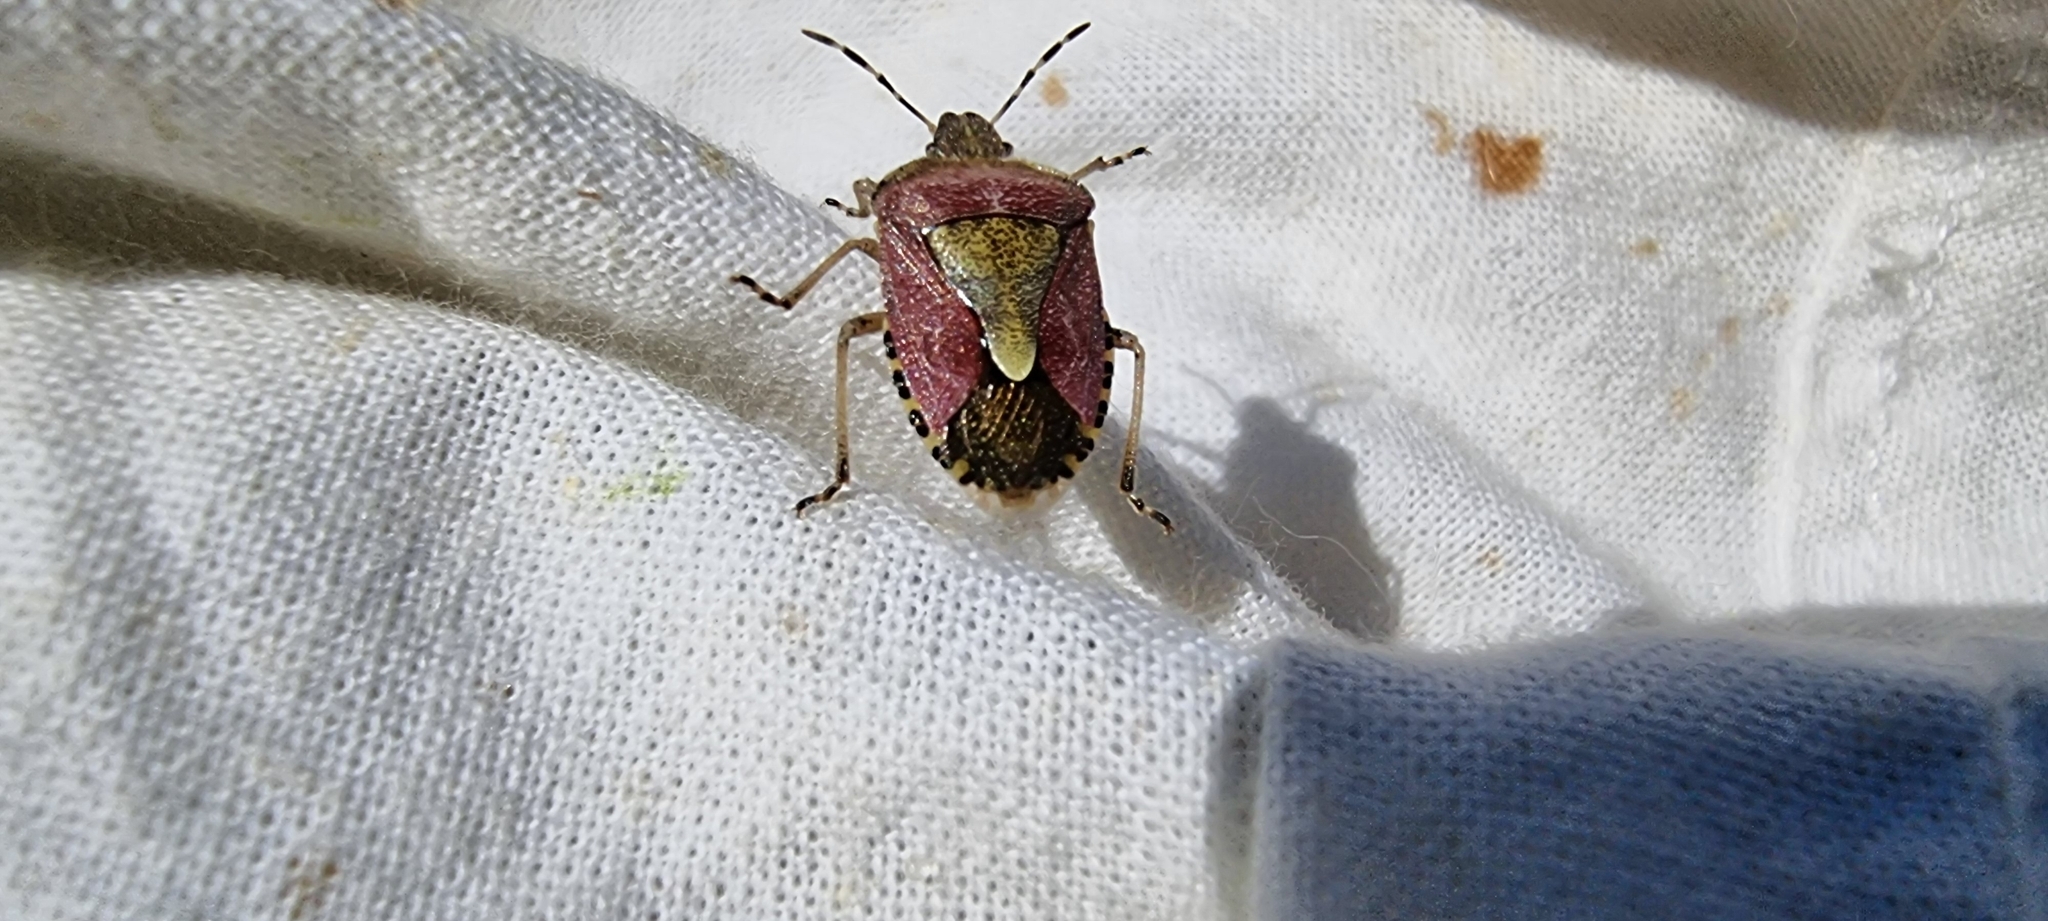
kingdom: Animalia
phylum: Arthropoda
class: Insecta
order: Hemiptera
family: Pentatomidae
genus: Dolycoris
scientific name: Dolycoris baccarum
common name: Sloe bug
